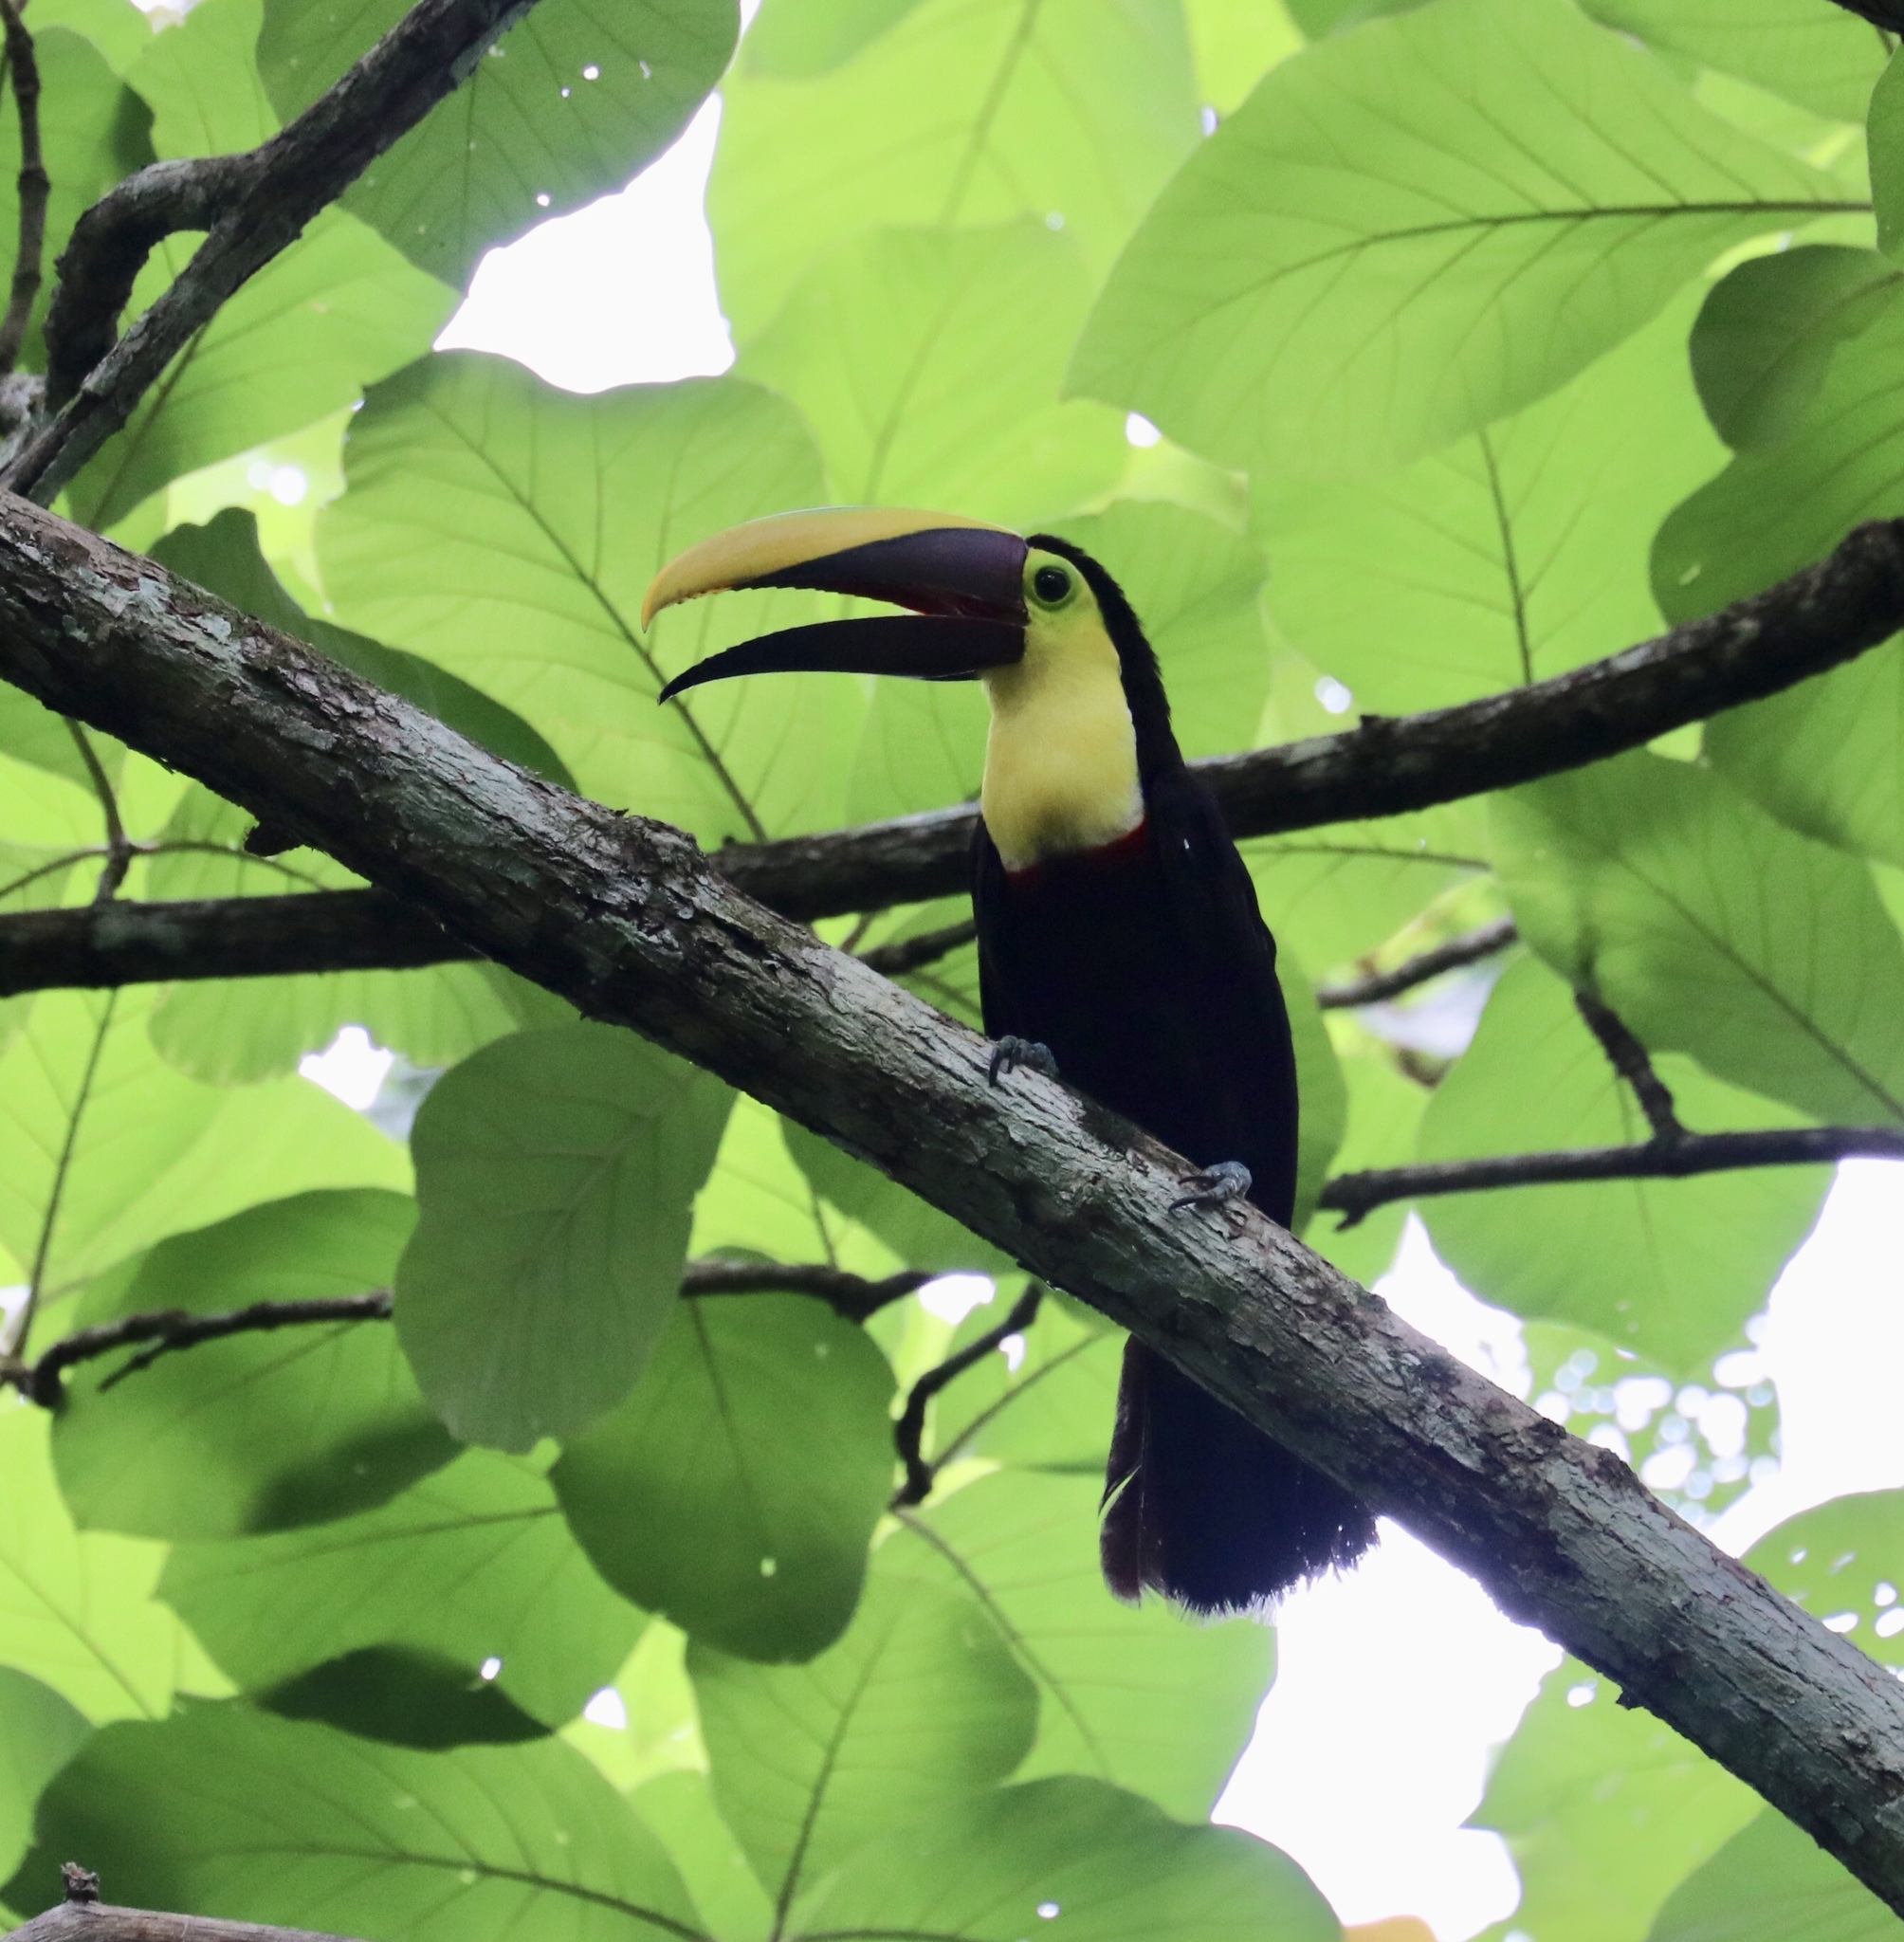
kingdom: Animalia
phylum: Chordata
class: Aves
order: Piciformes
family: Ramphastidae
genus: Ramphastos
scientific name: Ramphastos ambiguus
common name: Yellow-throated toucan
